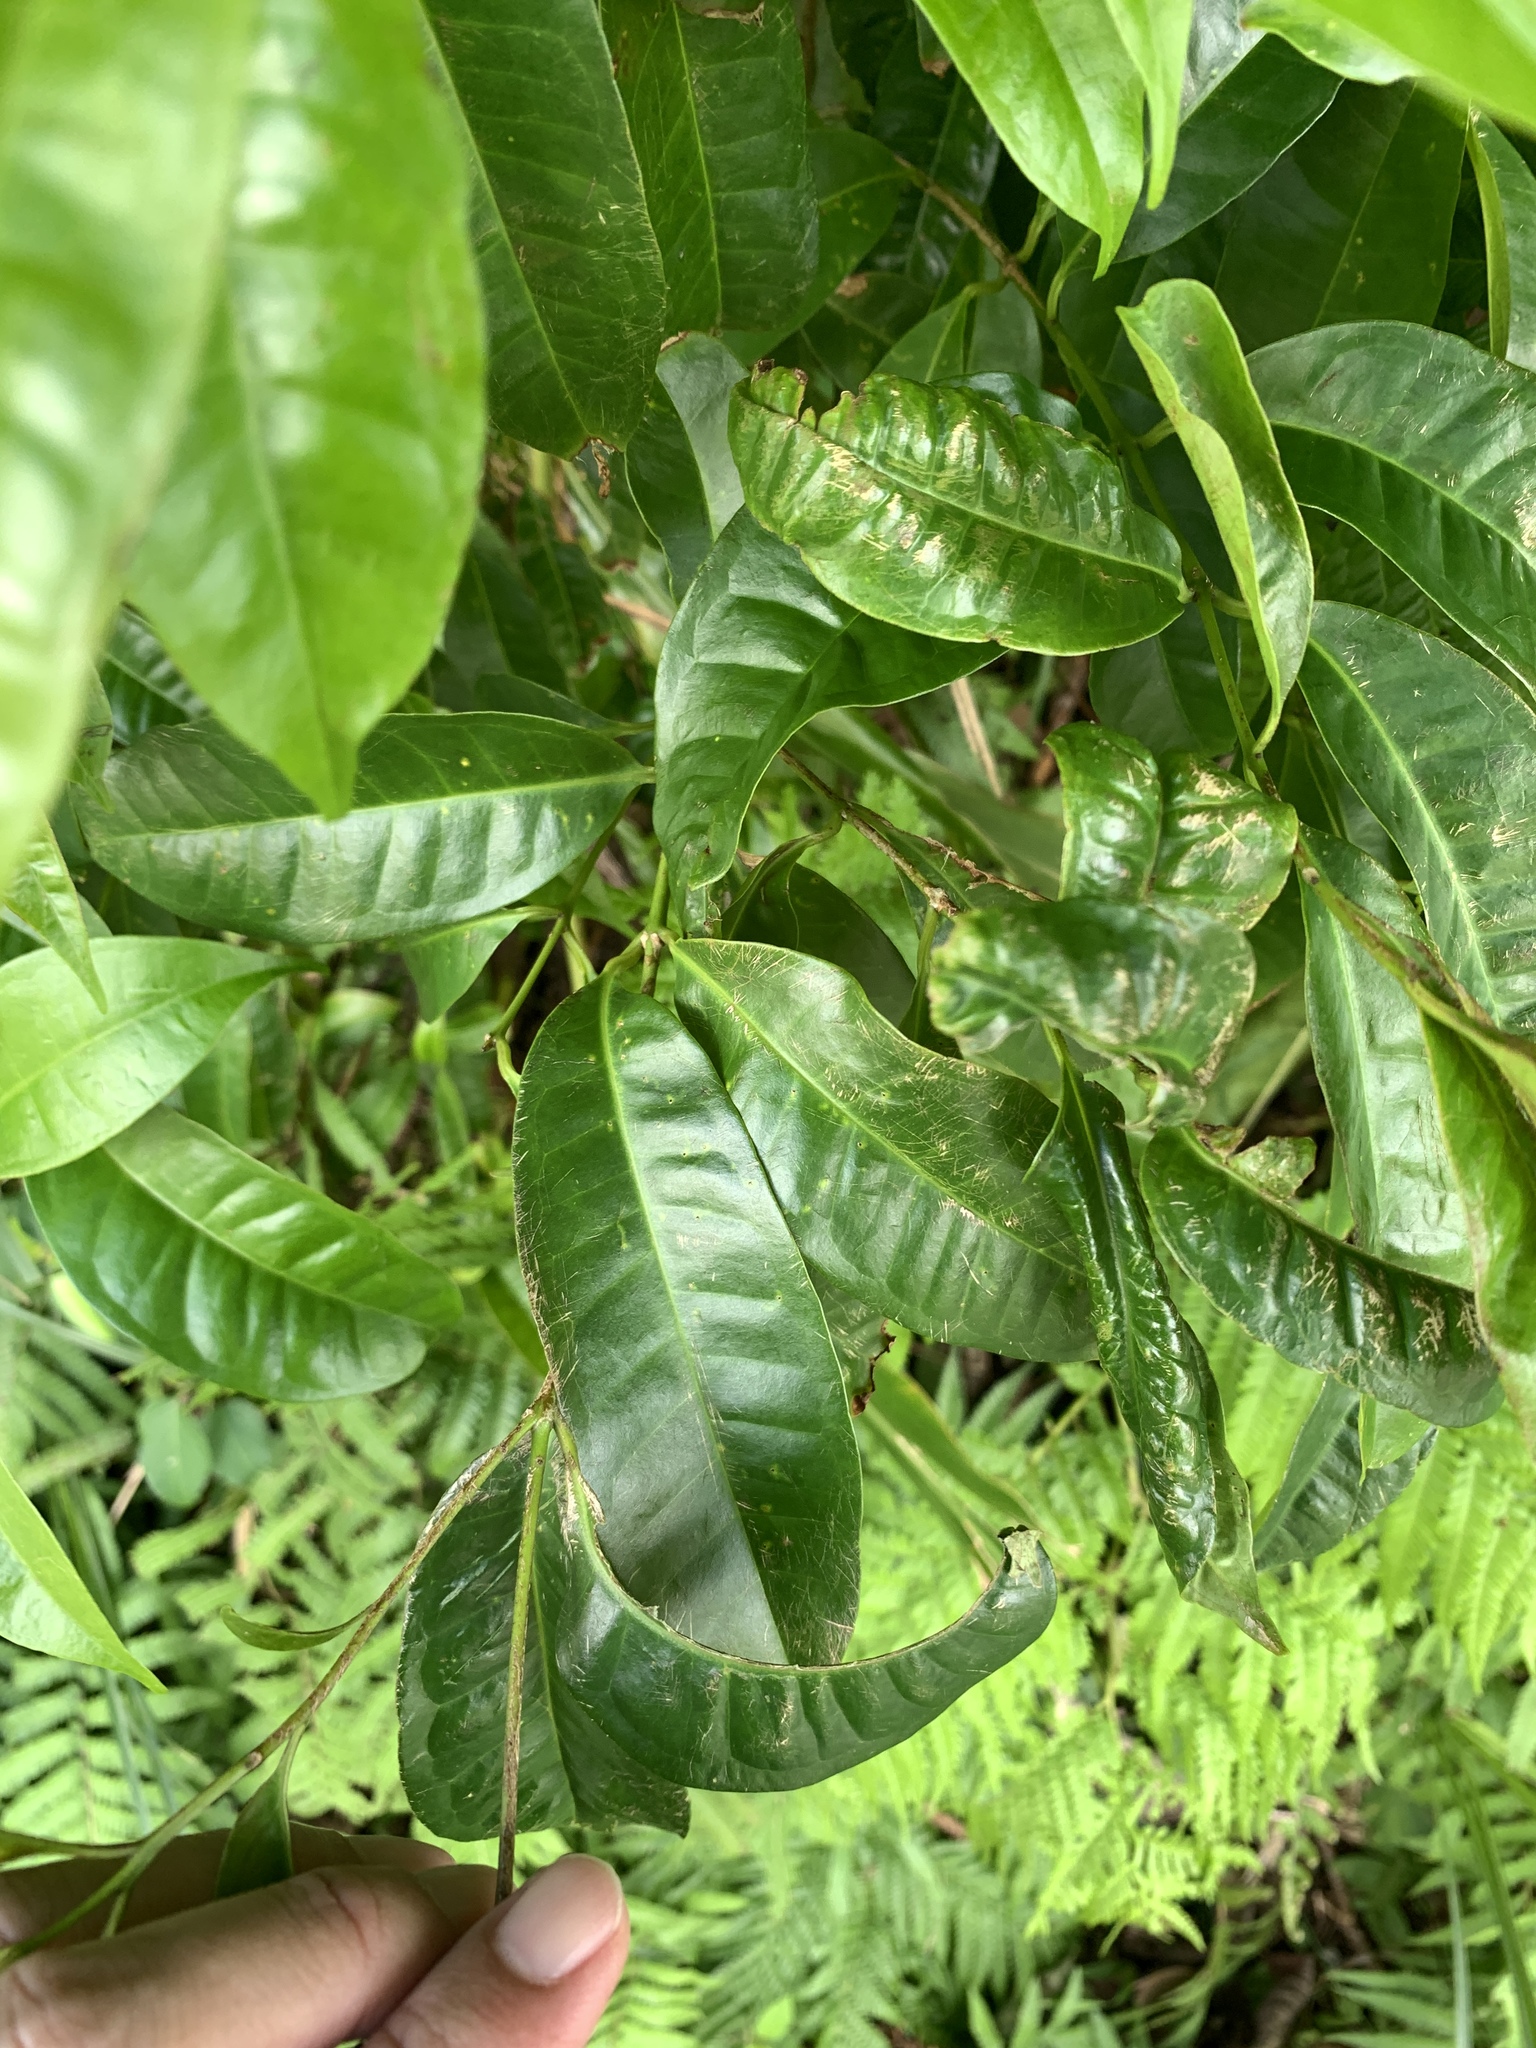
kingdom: Plantae
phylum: Tracheophyta
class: Magnoliopsida
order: Myrtales
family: Myrtaceae
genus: Syzygium
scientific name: Syzygium tripinnatum
